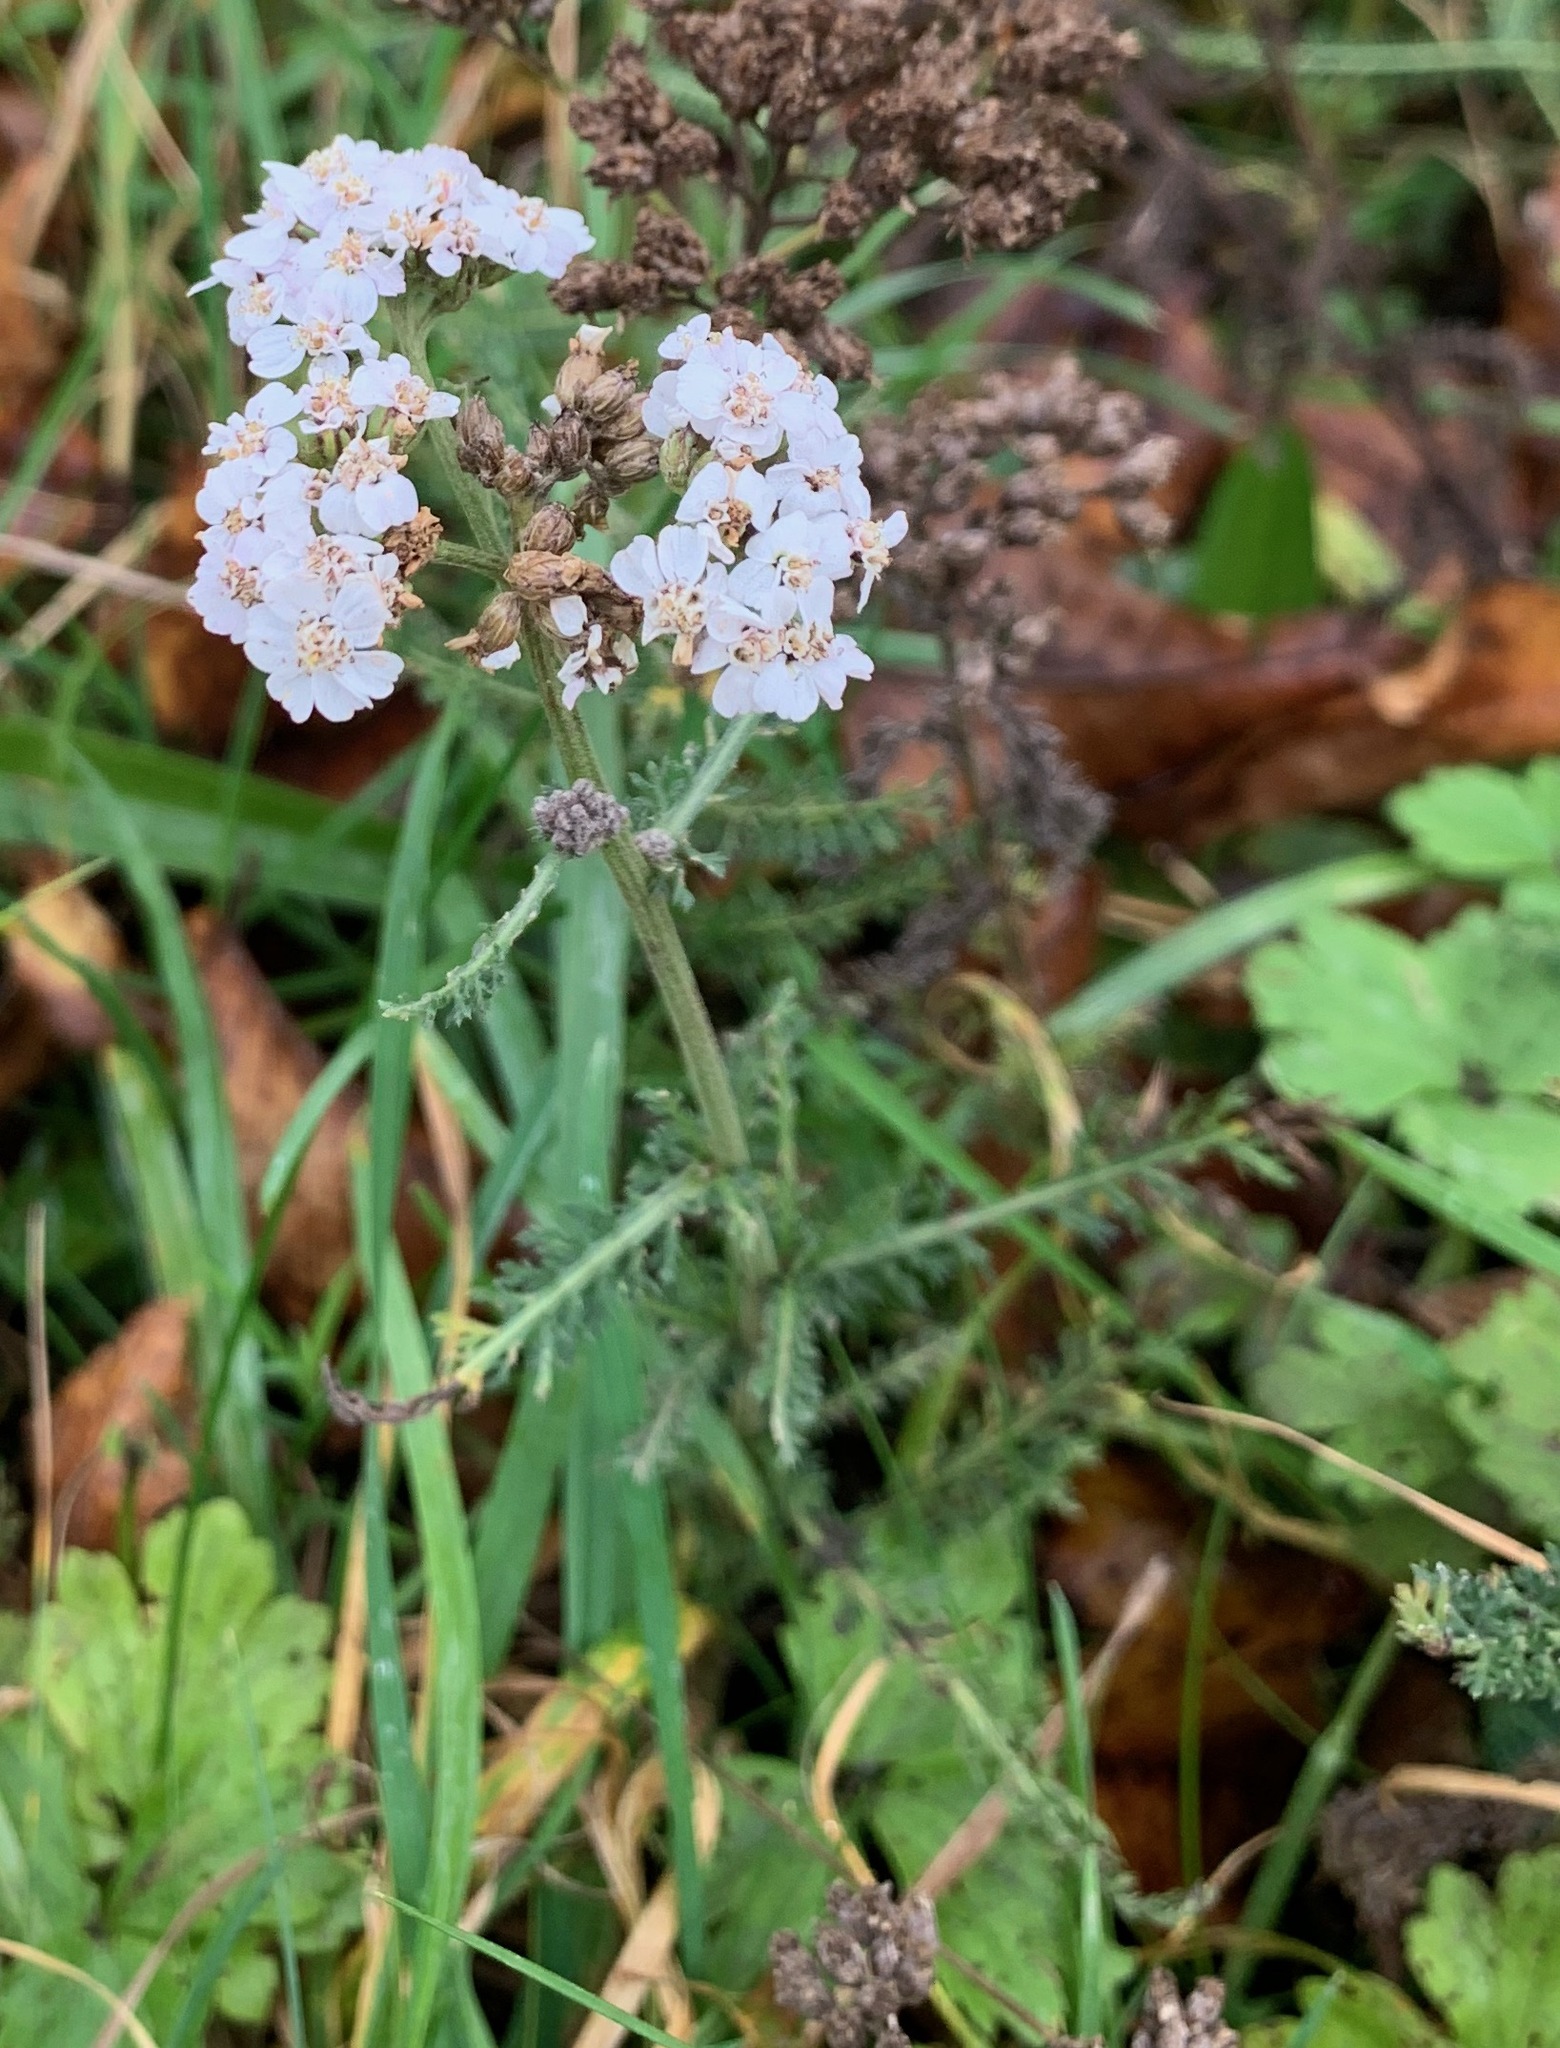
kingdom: Plantae
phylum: Tracheophyta
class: Magnoliopsida
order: Asterales
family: Asteraceae
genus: Achillea
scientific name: Achillea millefolium
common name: Yarrow
